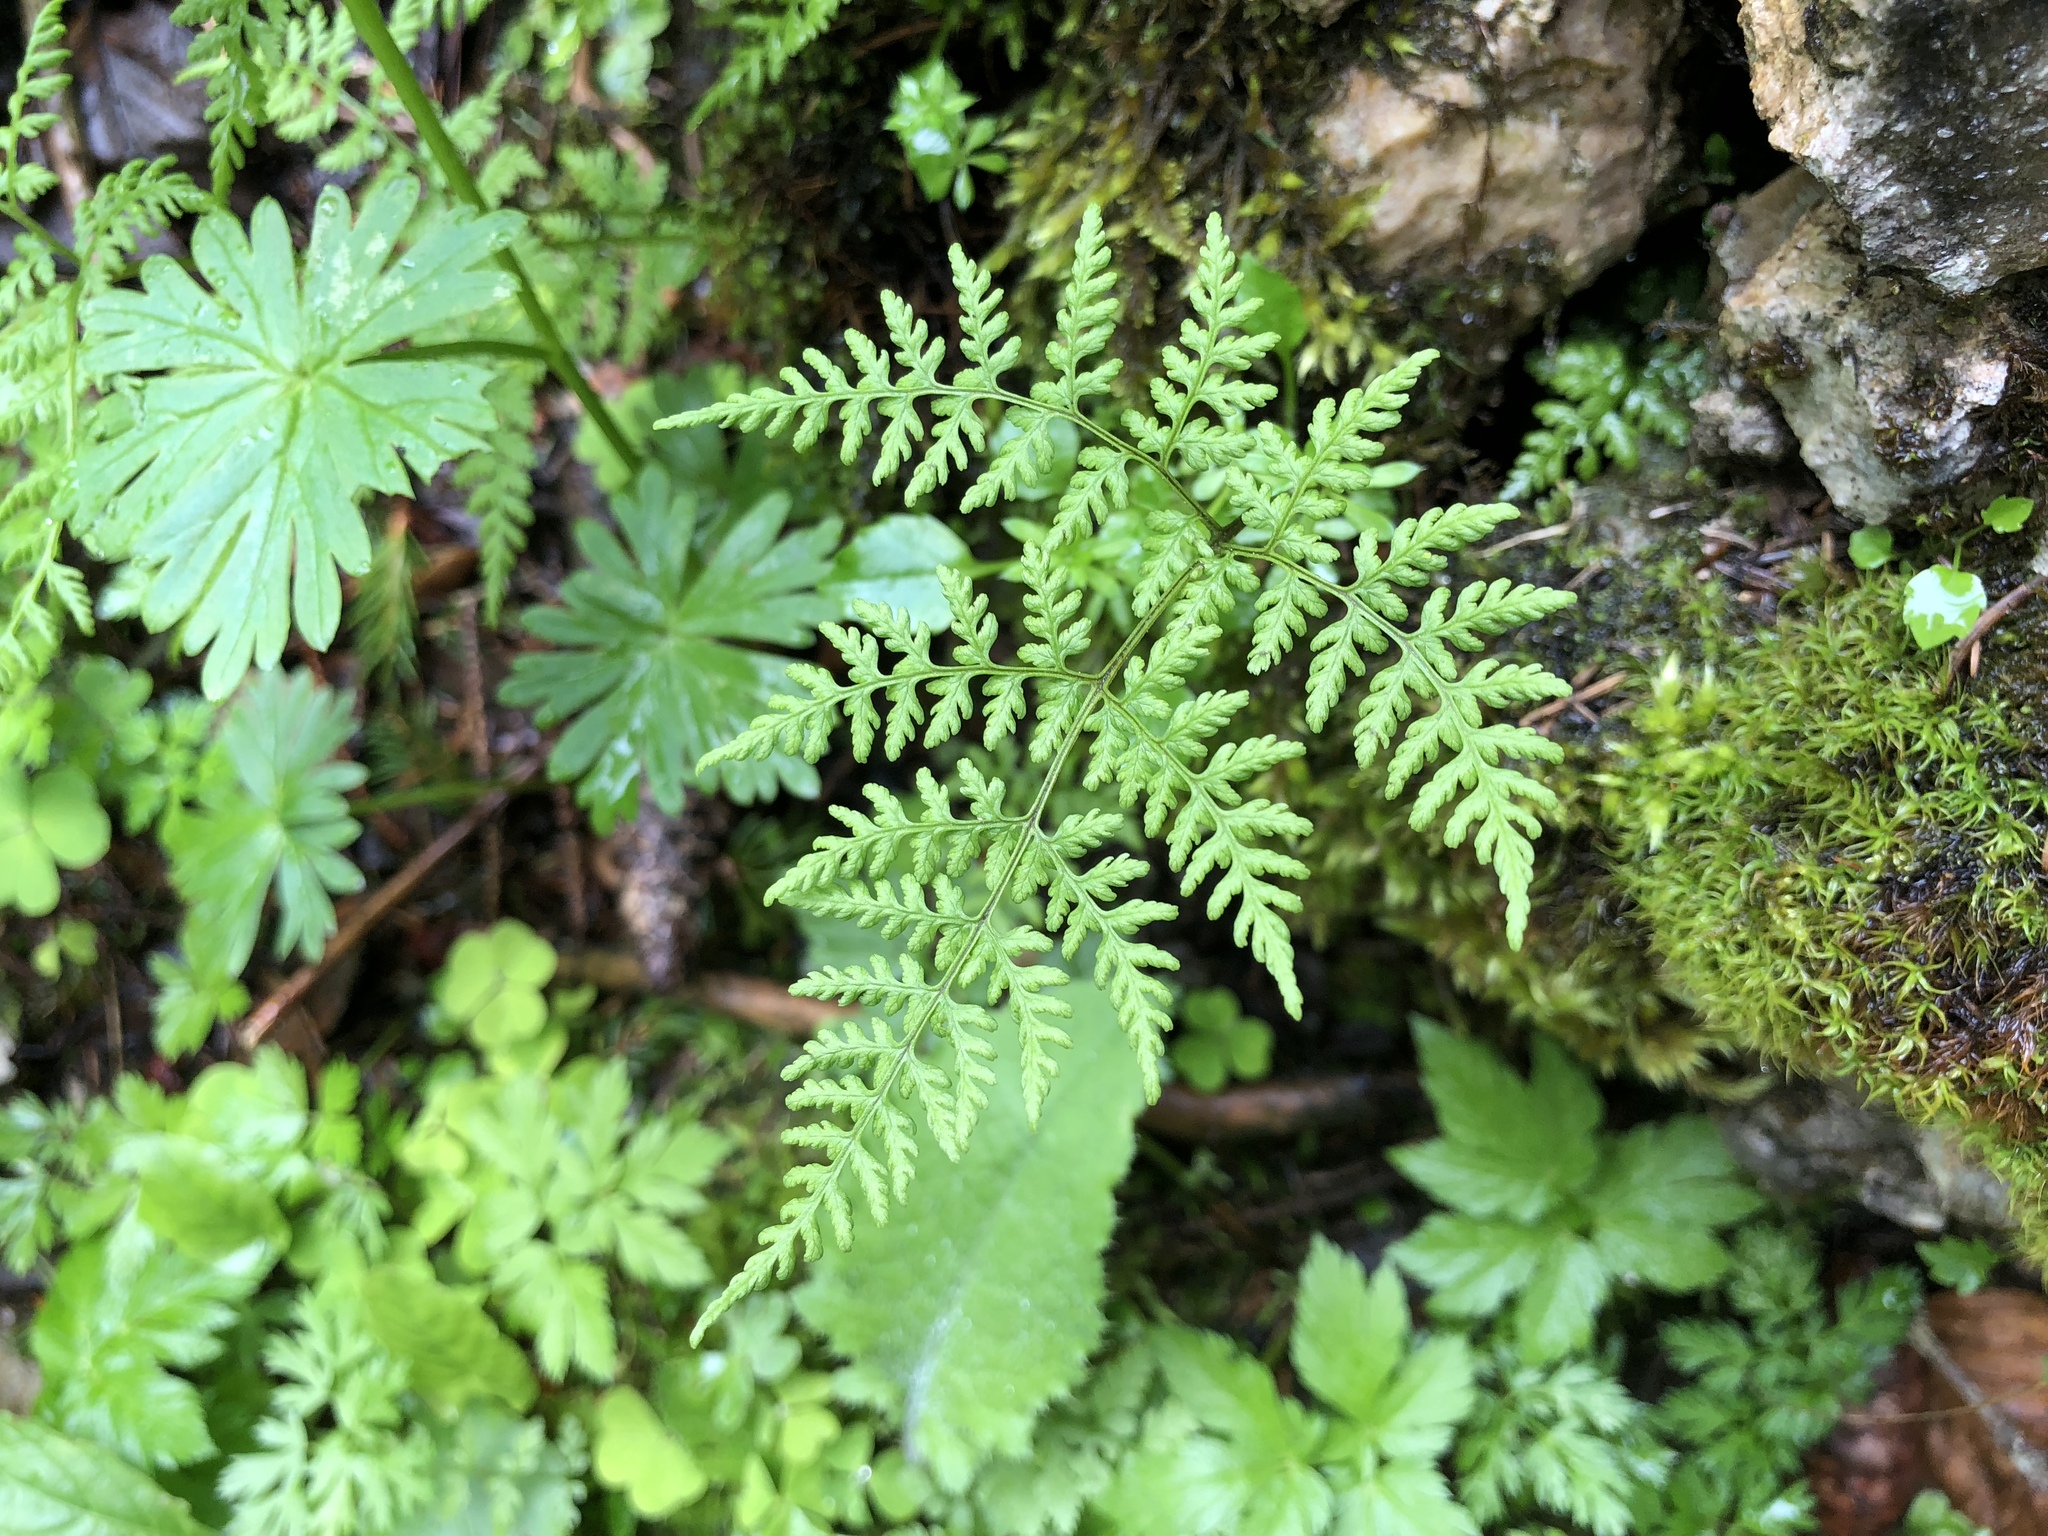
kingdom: Plantae
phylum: Tracheophyta
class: Polypodiopsida
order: Polypodiales
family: Cystopteridaceae
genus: Cystopteris
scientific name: Cystopteris montana
